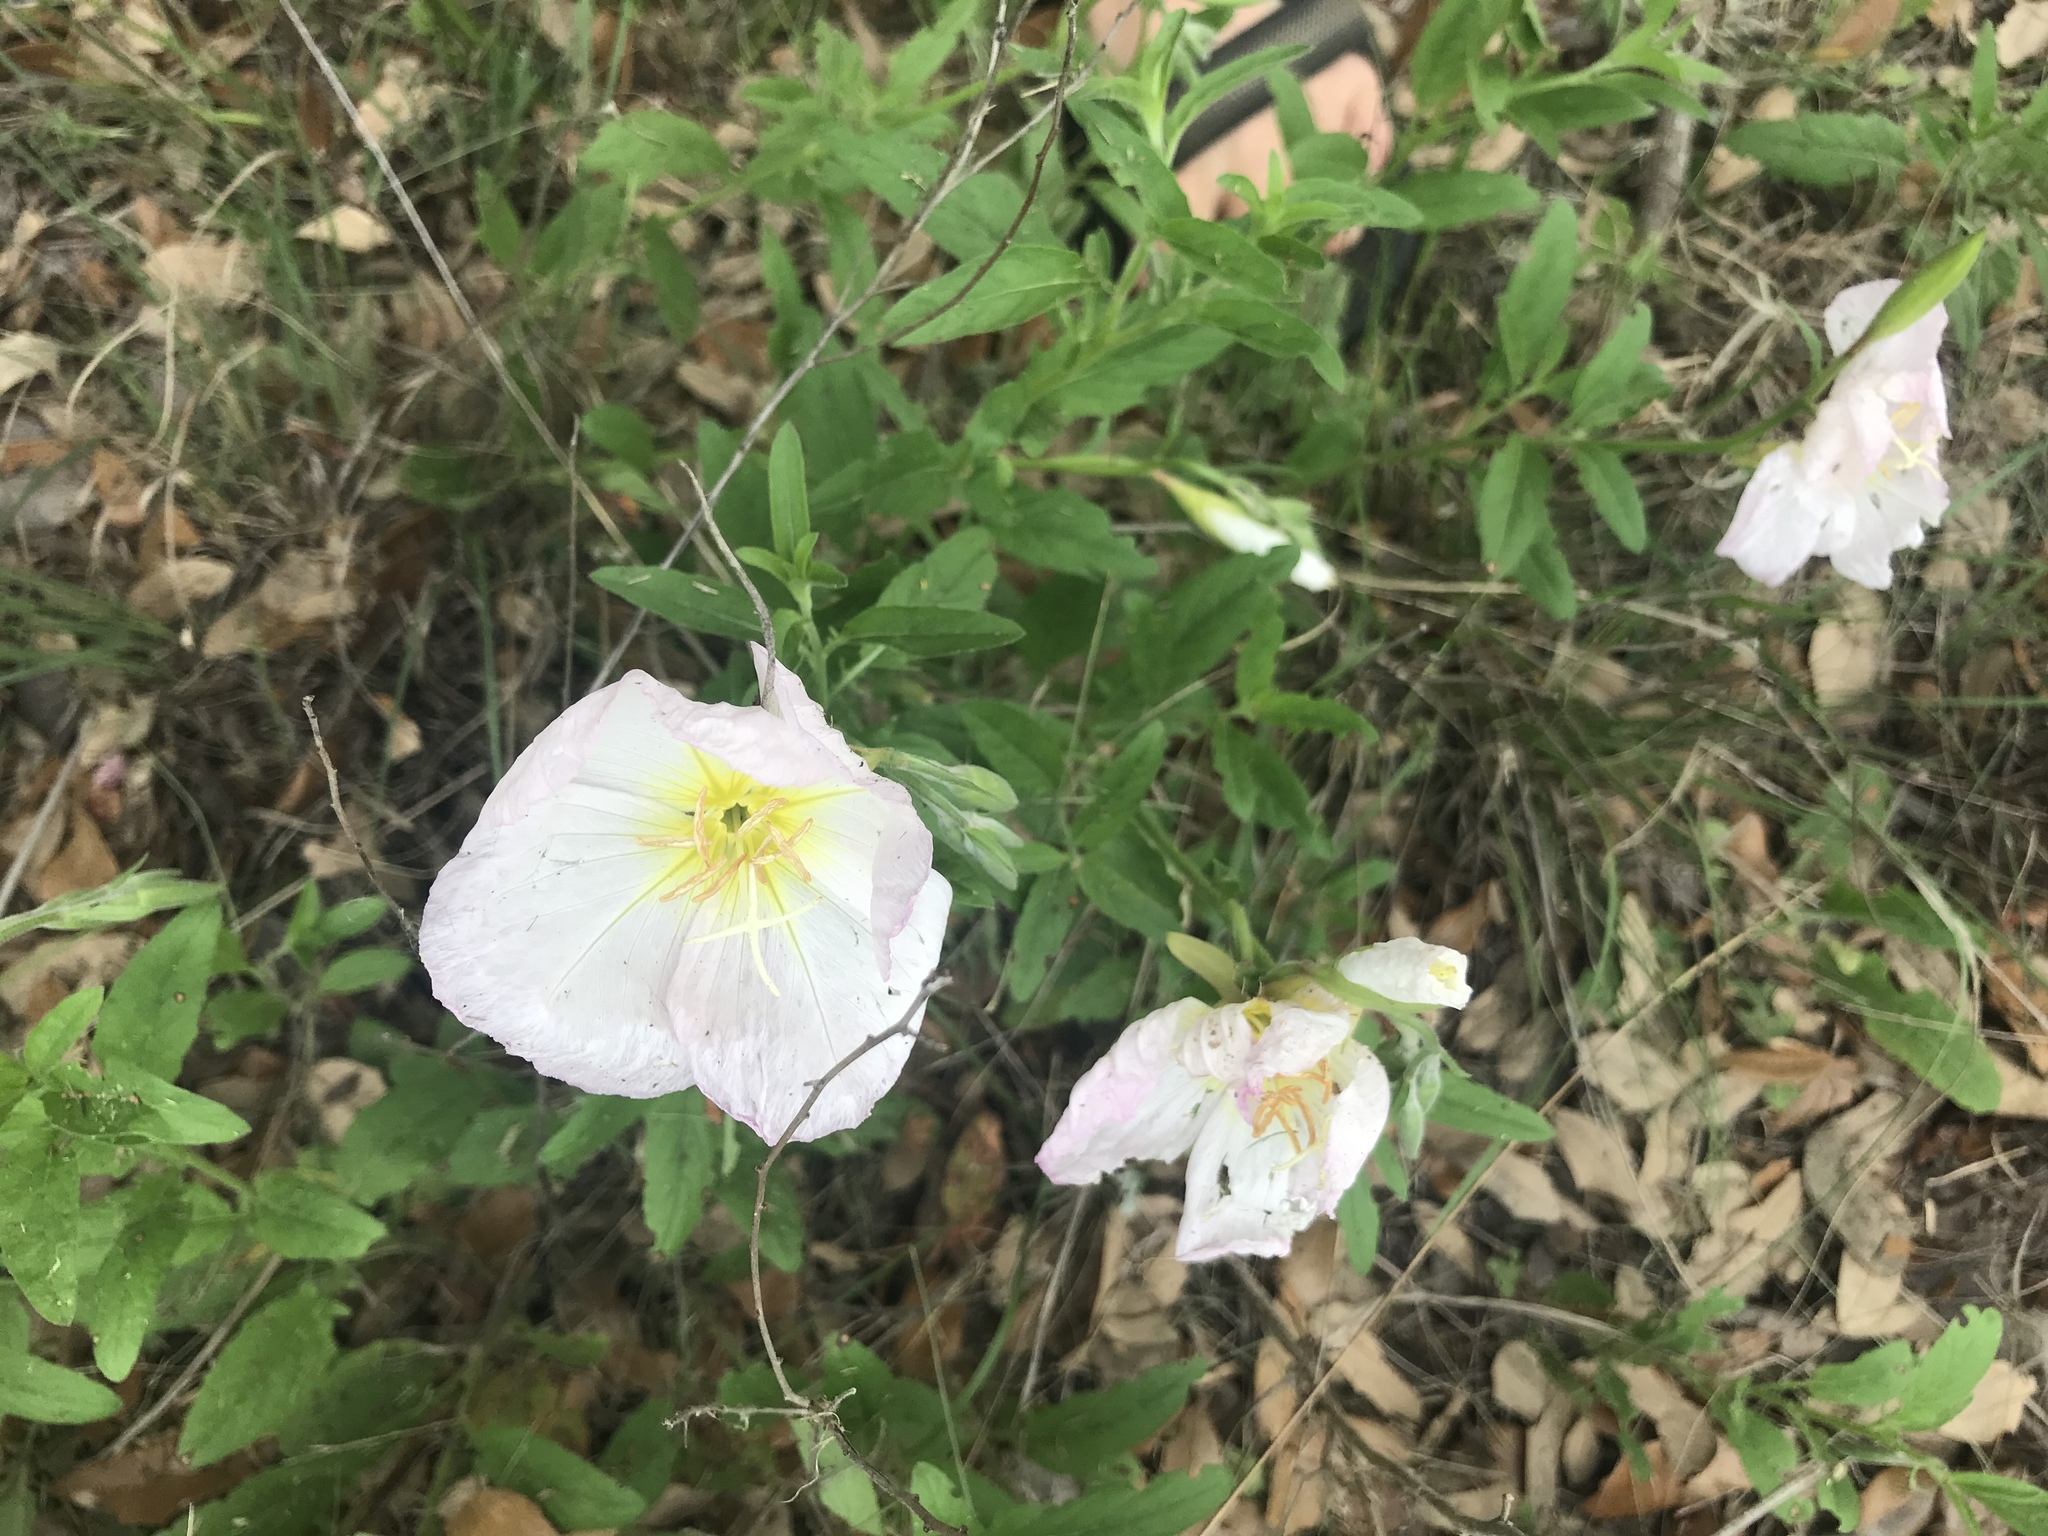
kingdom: Plantae
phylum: Tracheophyta
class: Magnoliopsida
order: Myrtales
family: Onagraceae
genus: Oenothera
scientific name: Oenothera speciosa
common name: White evening-primrose
